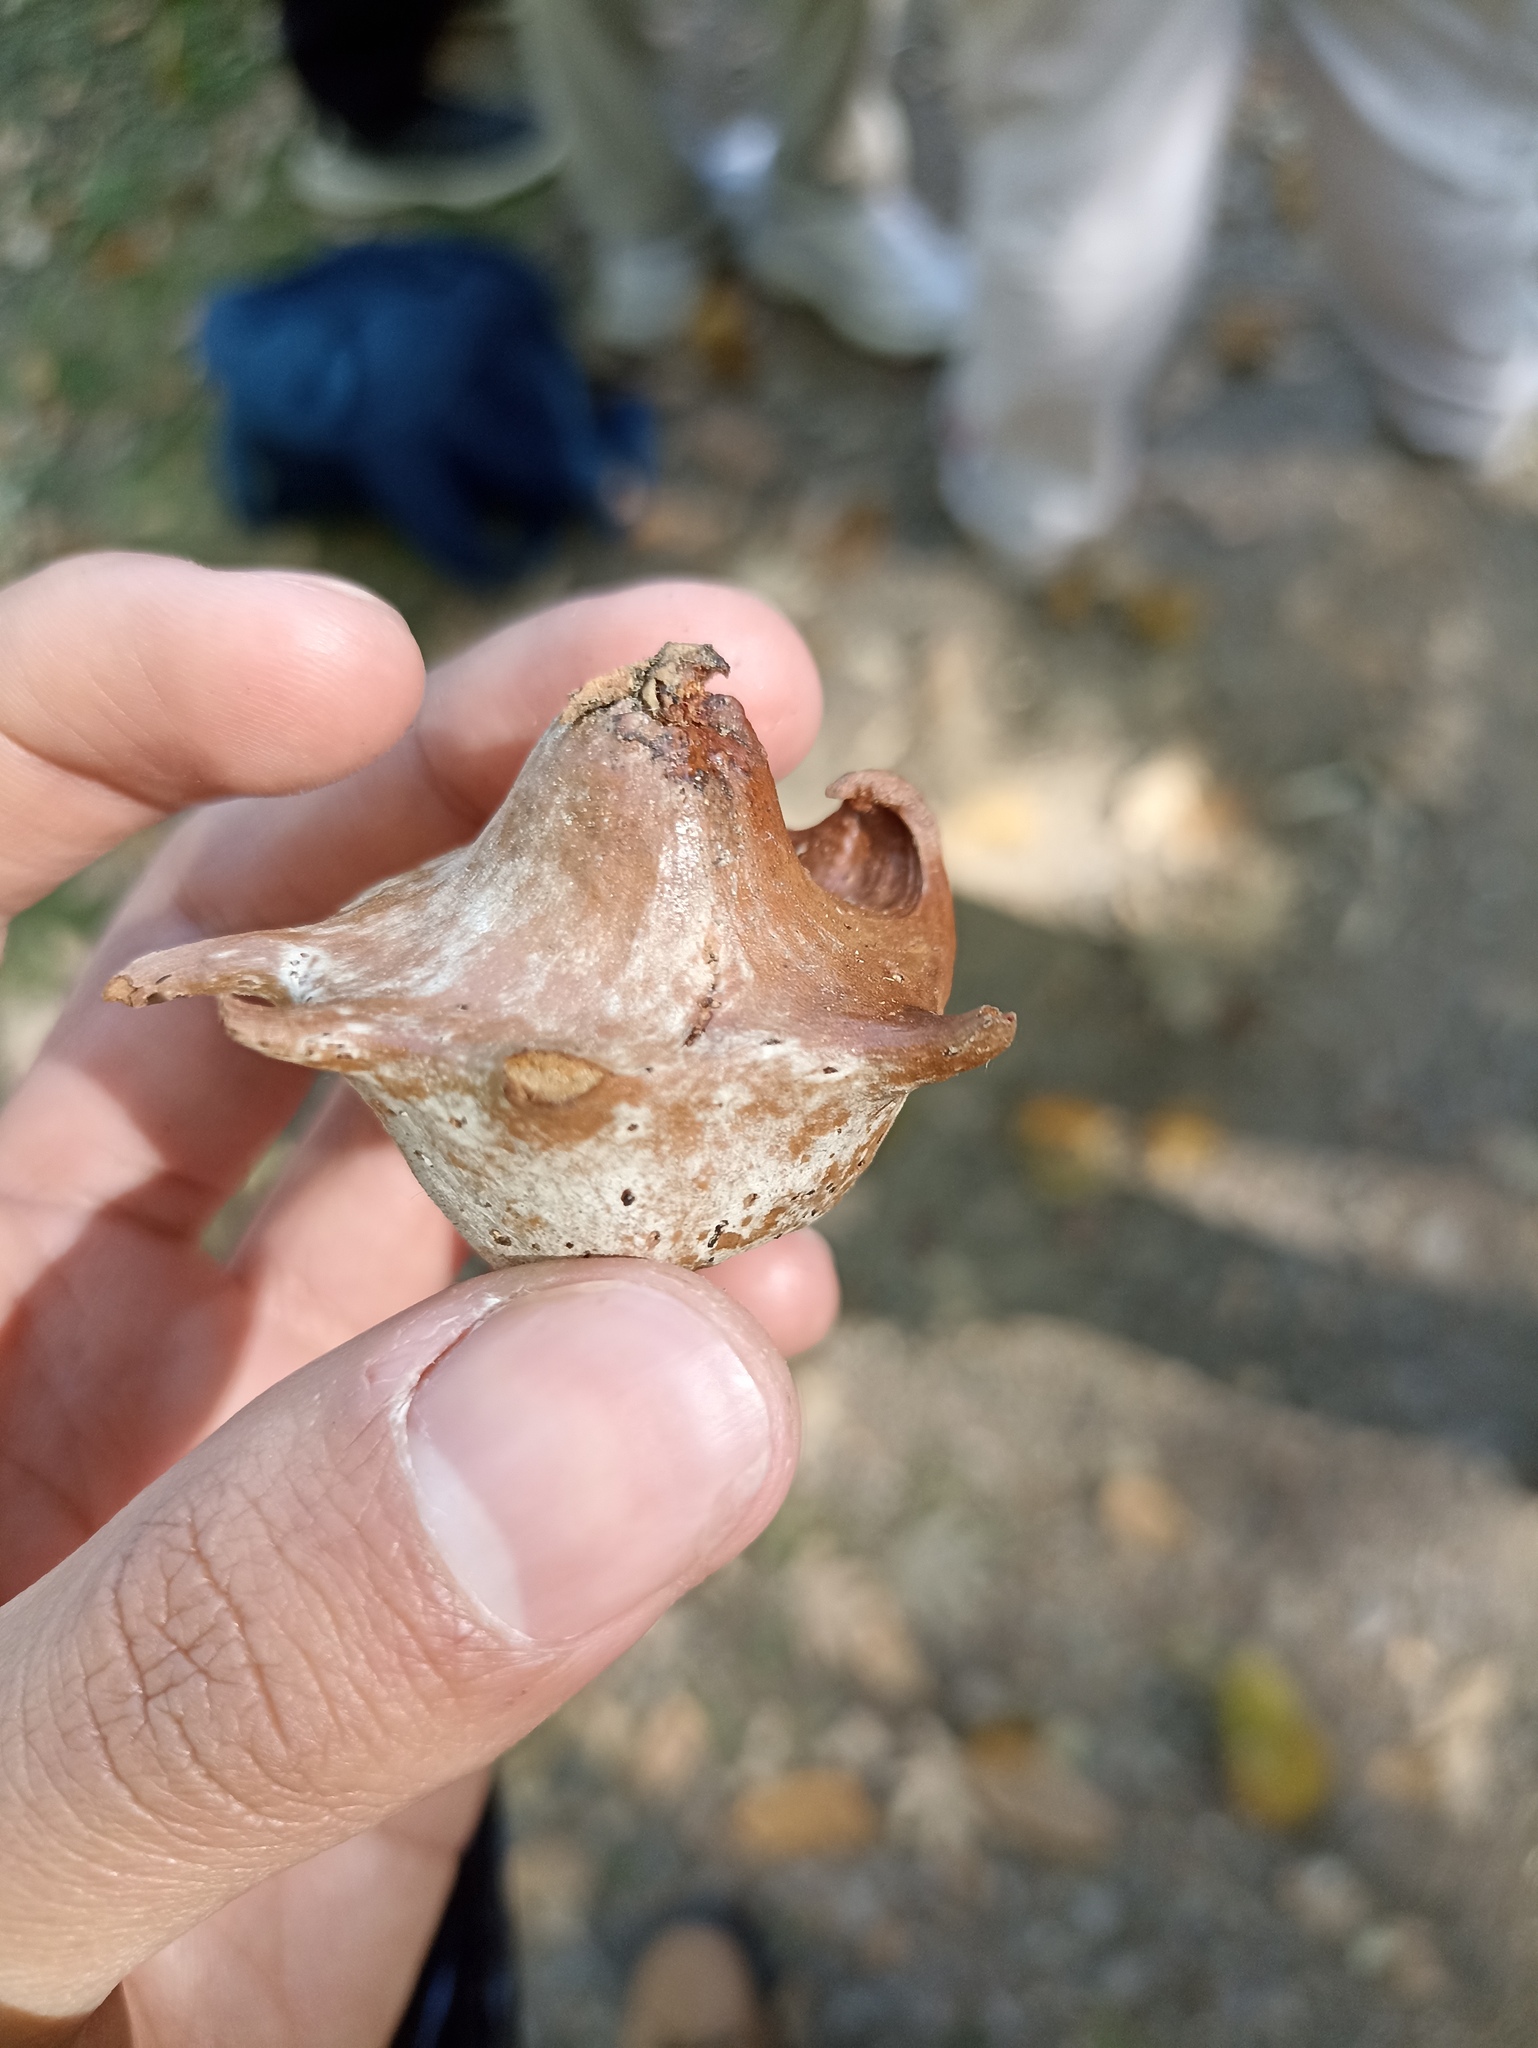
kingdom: Animalia
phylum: Arthropoda
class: Insecta
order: Hymenoptera
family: Cynipidae
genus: Andricus
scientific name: Andricus pictus
